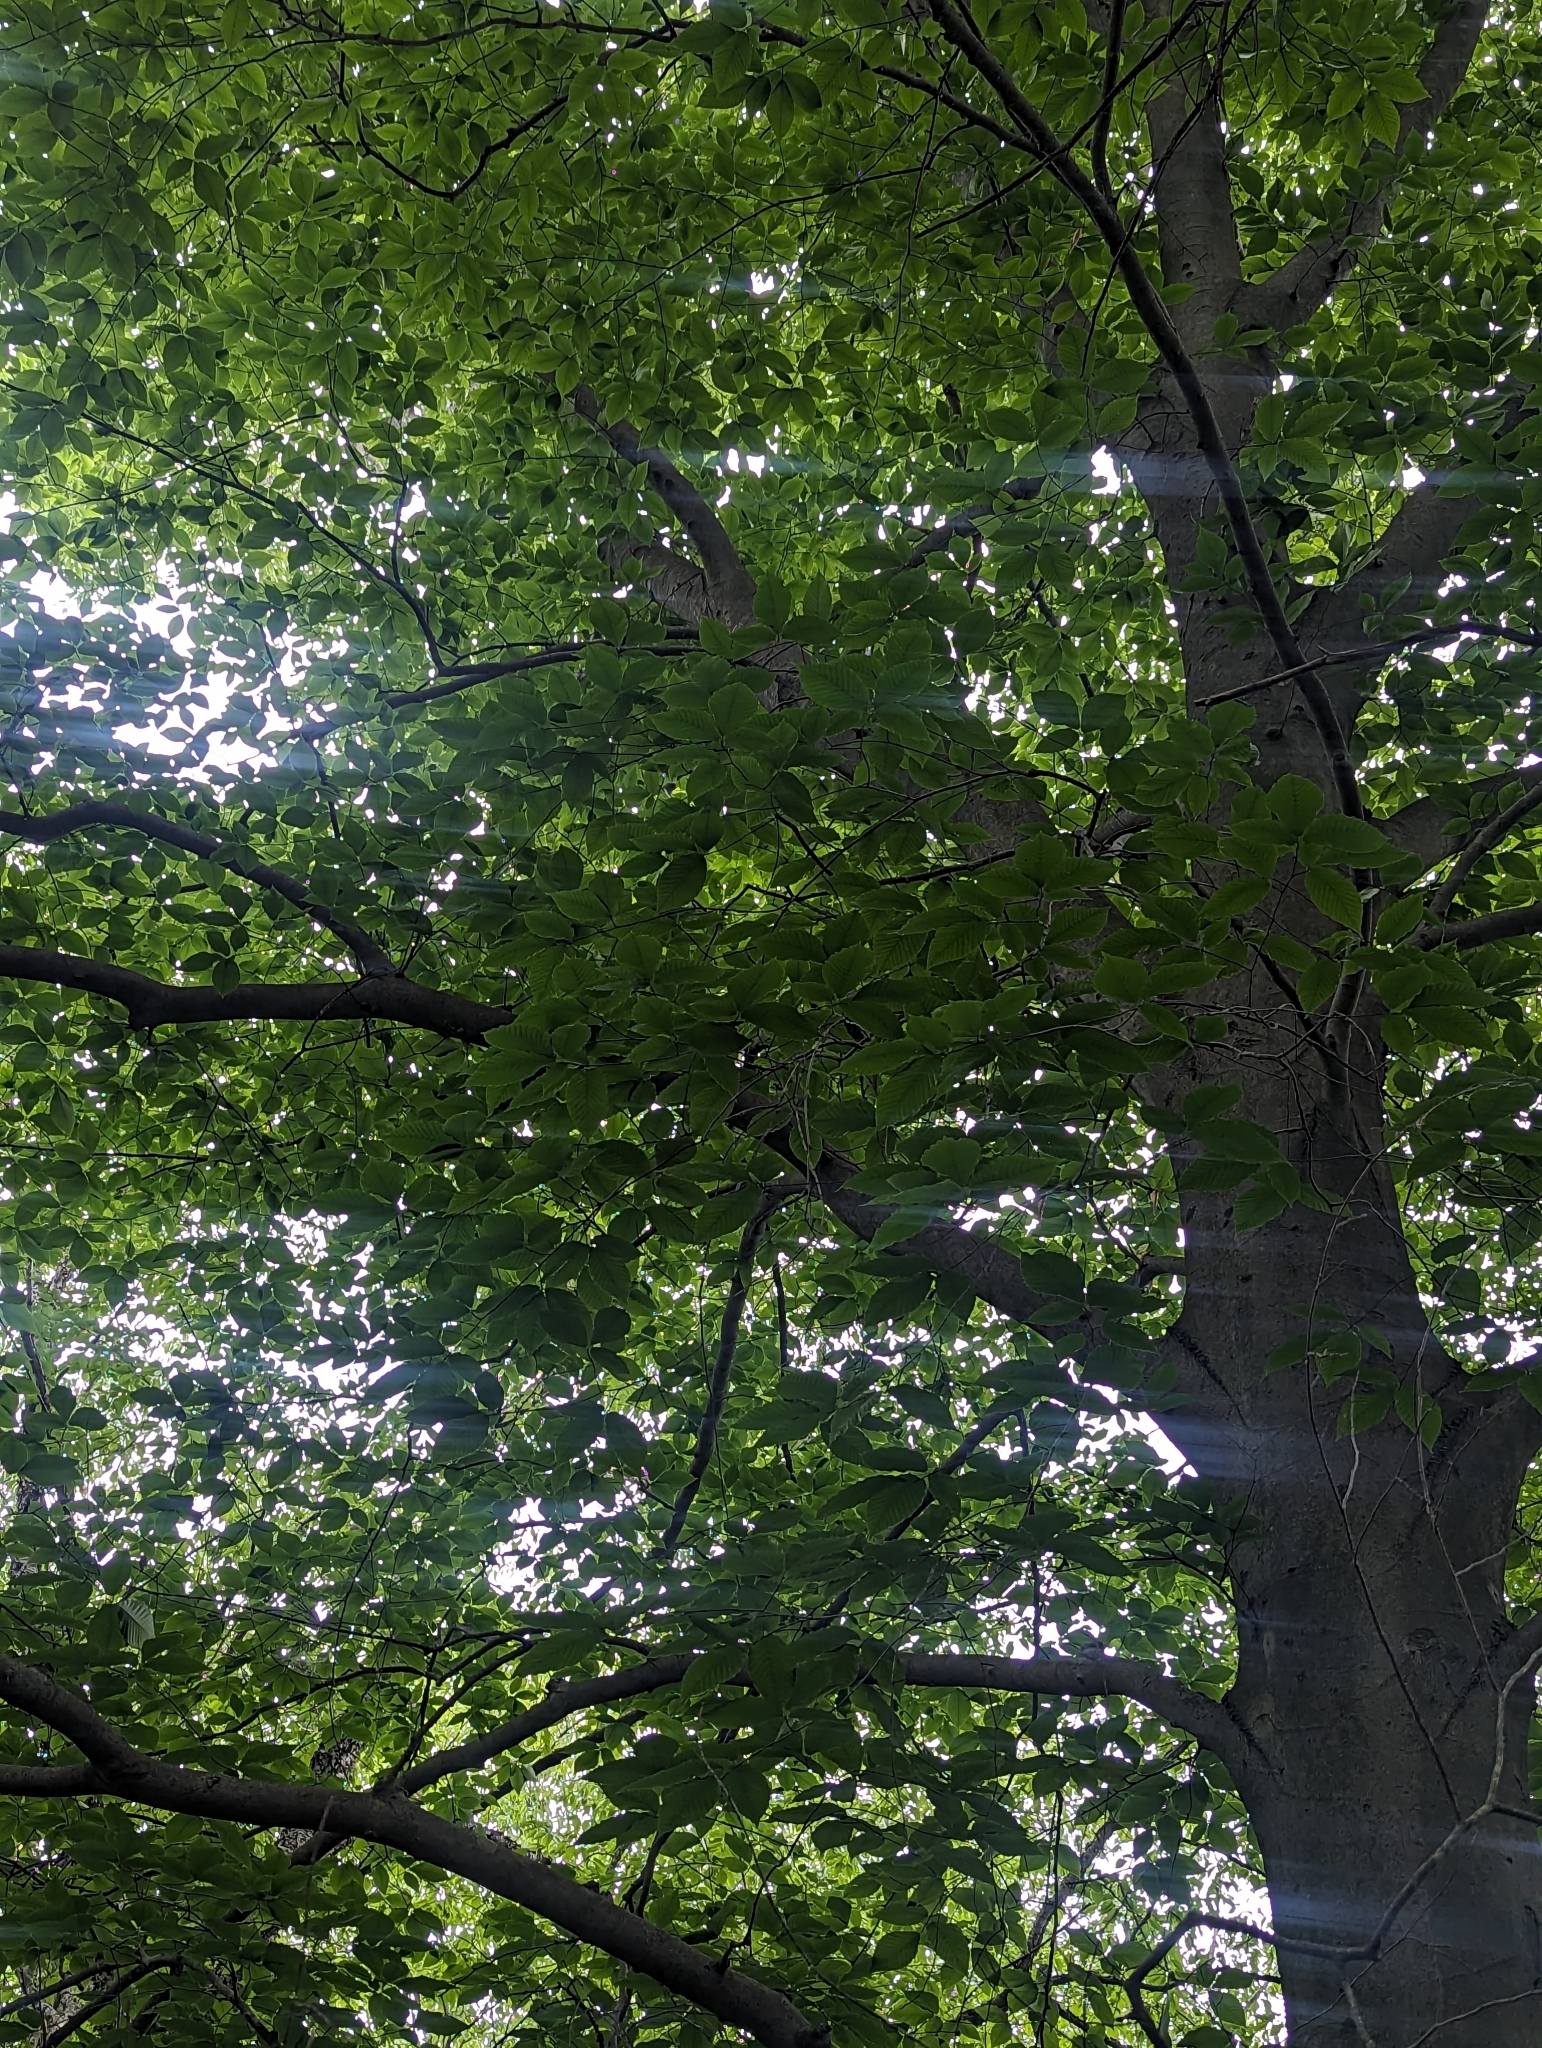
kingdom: Plantae
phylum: Tracheophyta
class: Magnoliopsida
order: Fagales
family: Fagaceae
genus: Fagus
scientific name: Fagus grandifolia
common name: American beech
